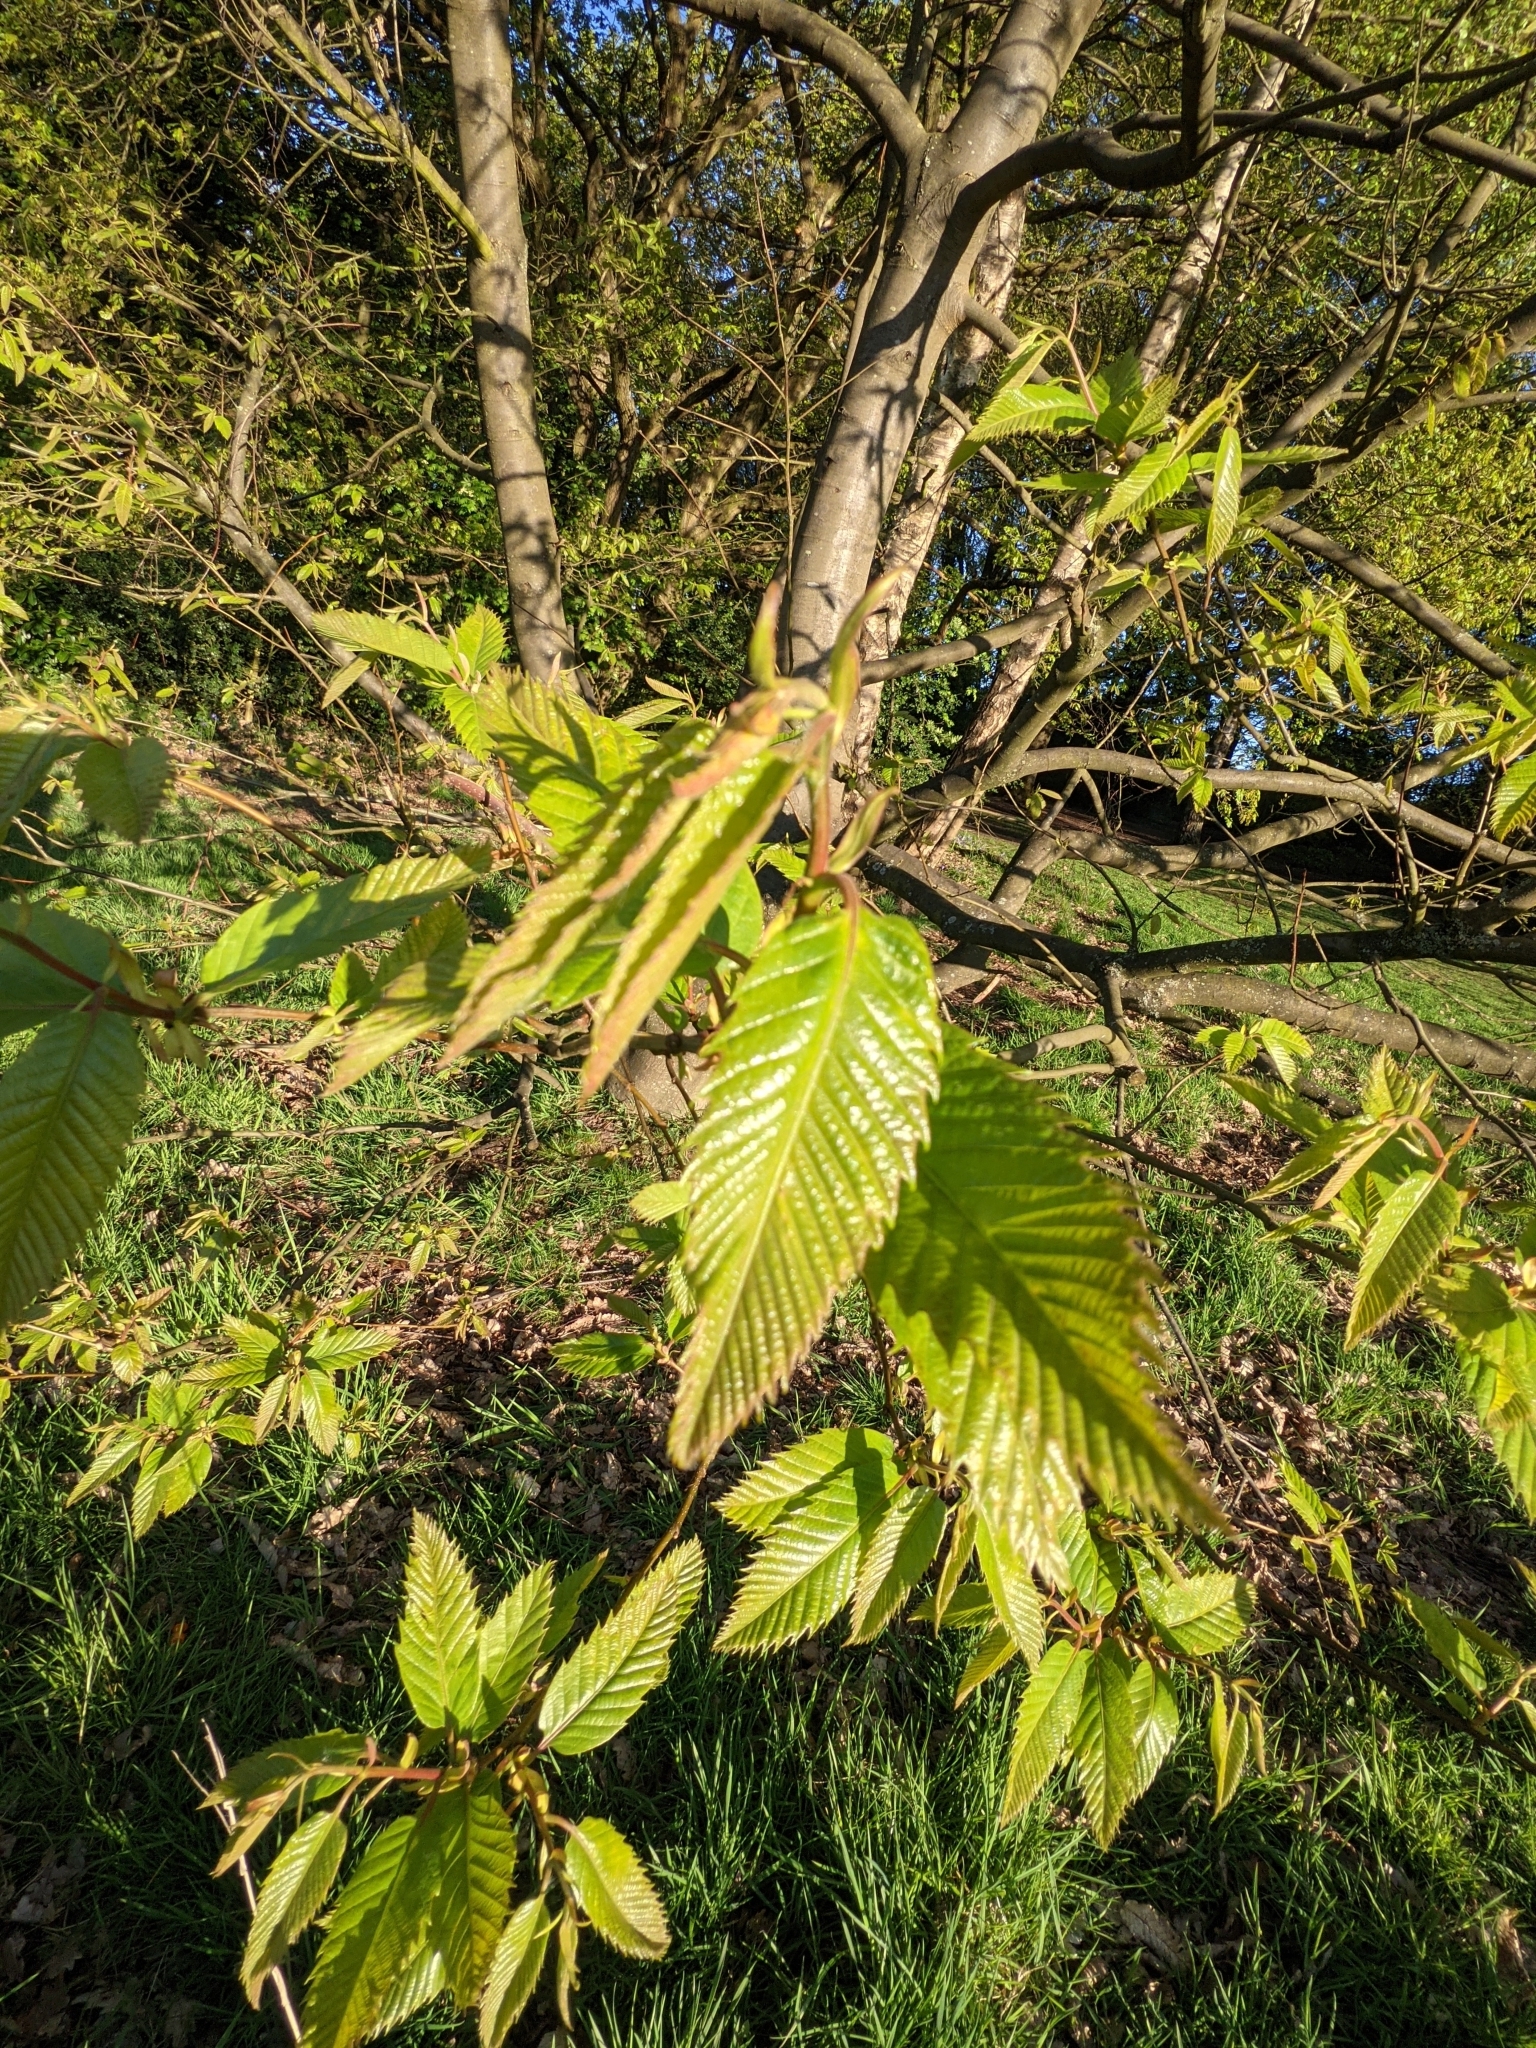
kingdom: Plantae
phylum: Tracheophyta
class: Magnoliopsida
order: Fagales
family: Fagaceae
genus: Castanea
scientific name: Castanea sativa
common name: Sweet chestnut
